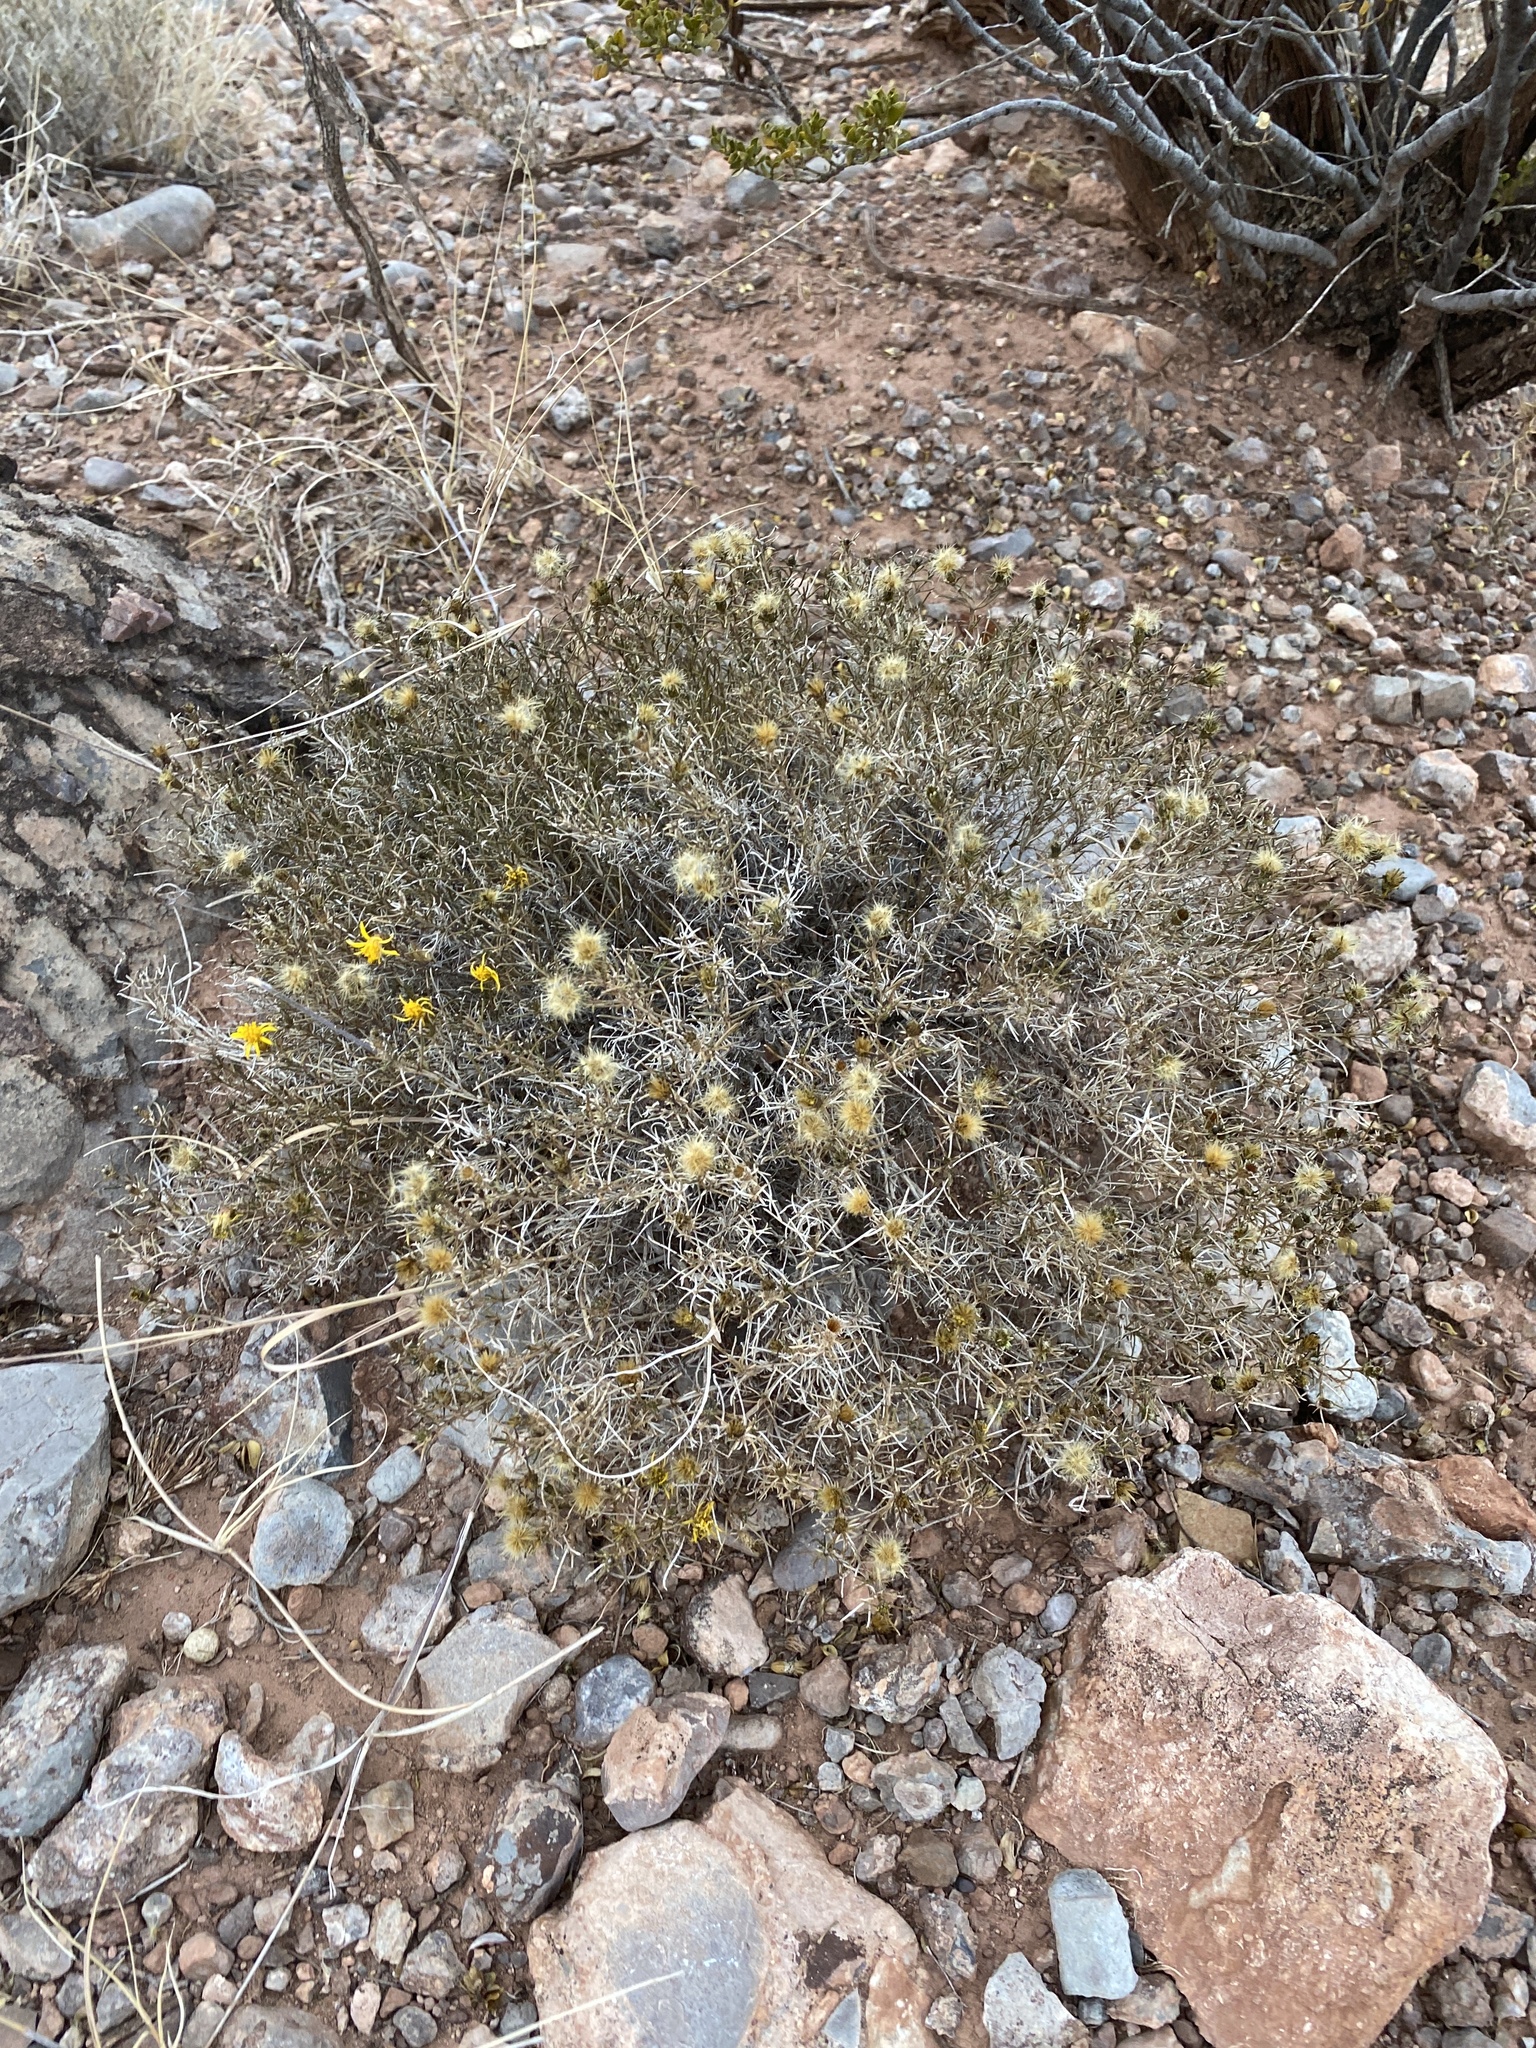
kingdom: Plantae
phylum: Tracheophyta
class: Magnoliopsida
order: Asterales
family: Asteraceae
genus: Thymophylla
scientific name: Thymophylla acerosa
